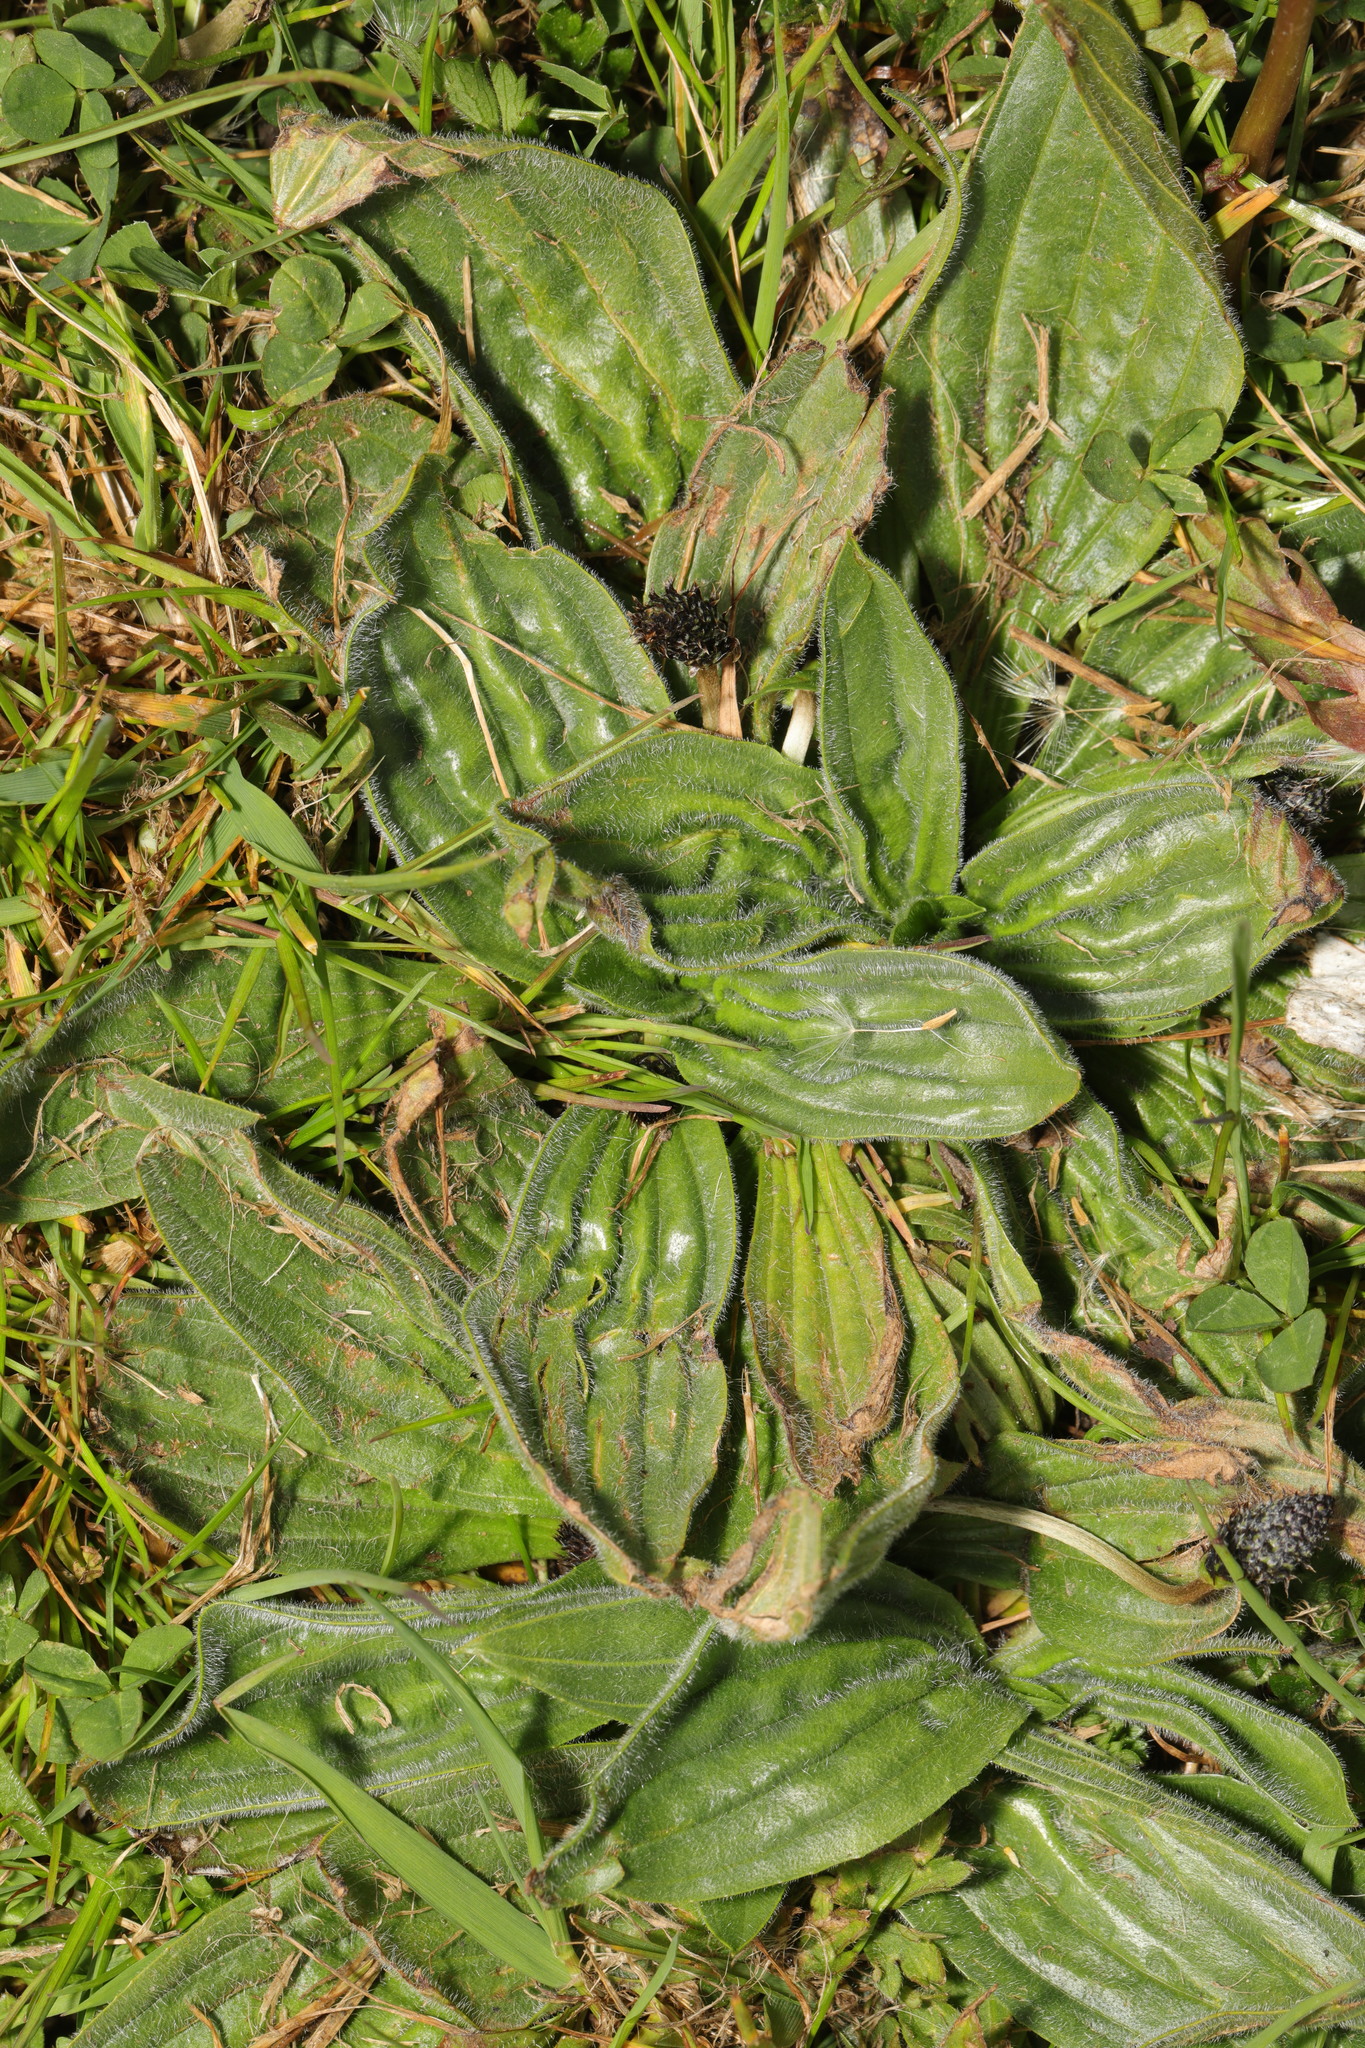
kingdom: Plantae
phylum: Tracheophyta
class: Magnoliopsida
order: Lamiales
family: Plantaginaceae
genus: Plantago
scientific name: Plantago media
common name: Hoary plantain
